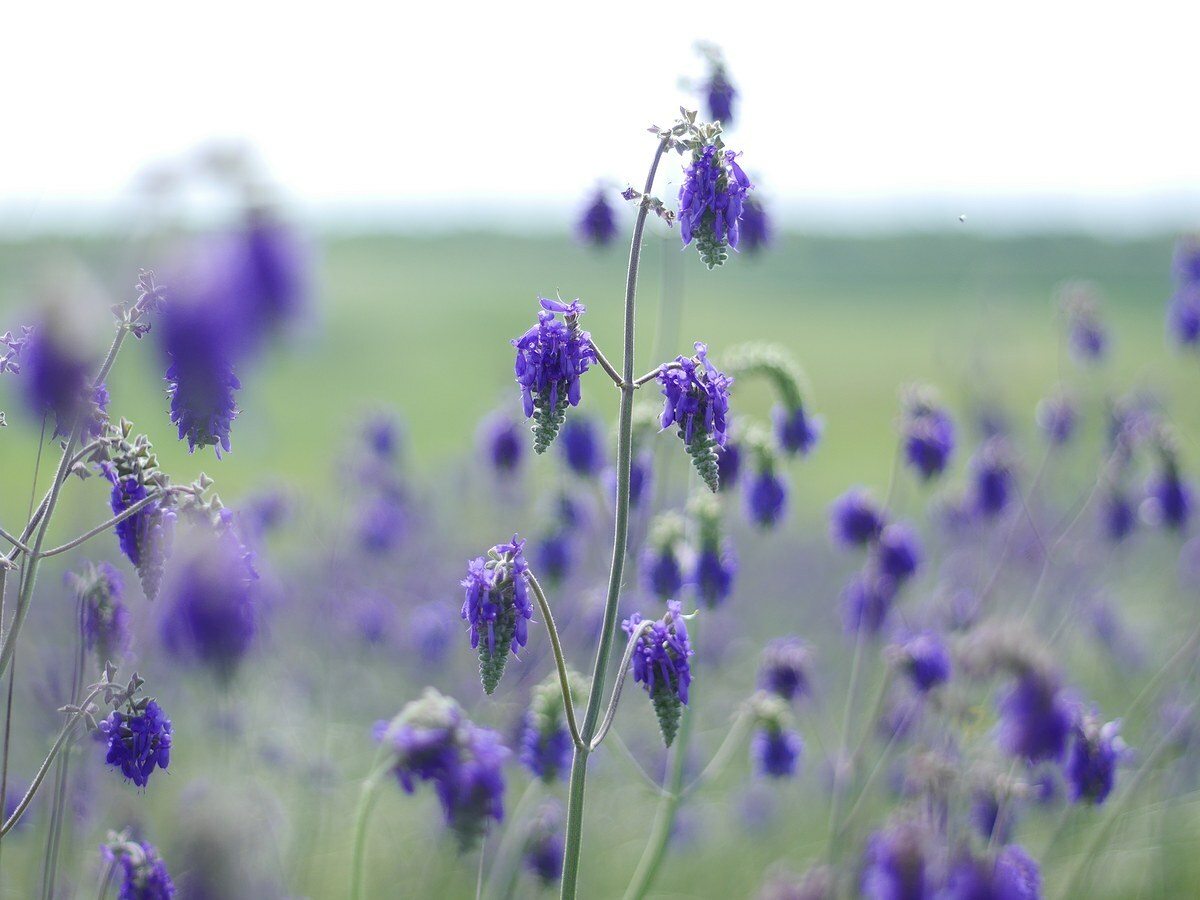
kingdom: Plantae
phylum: Tracheophyta
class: Magnoliopsida
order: Lamiales
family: Lamiaceae
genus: Salvia
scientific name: Salvia nutans
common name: Nodding sage
